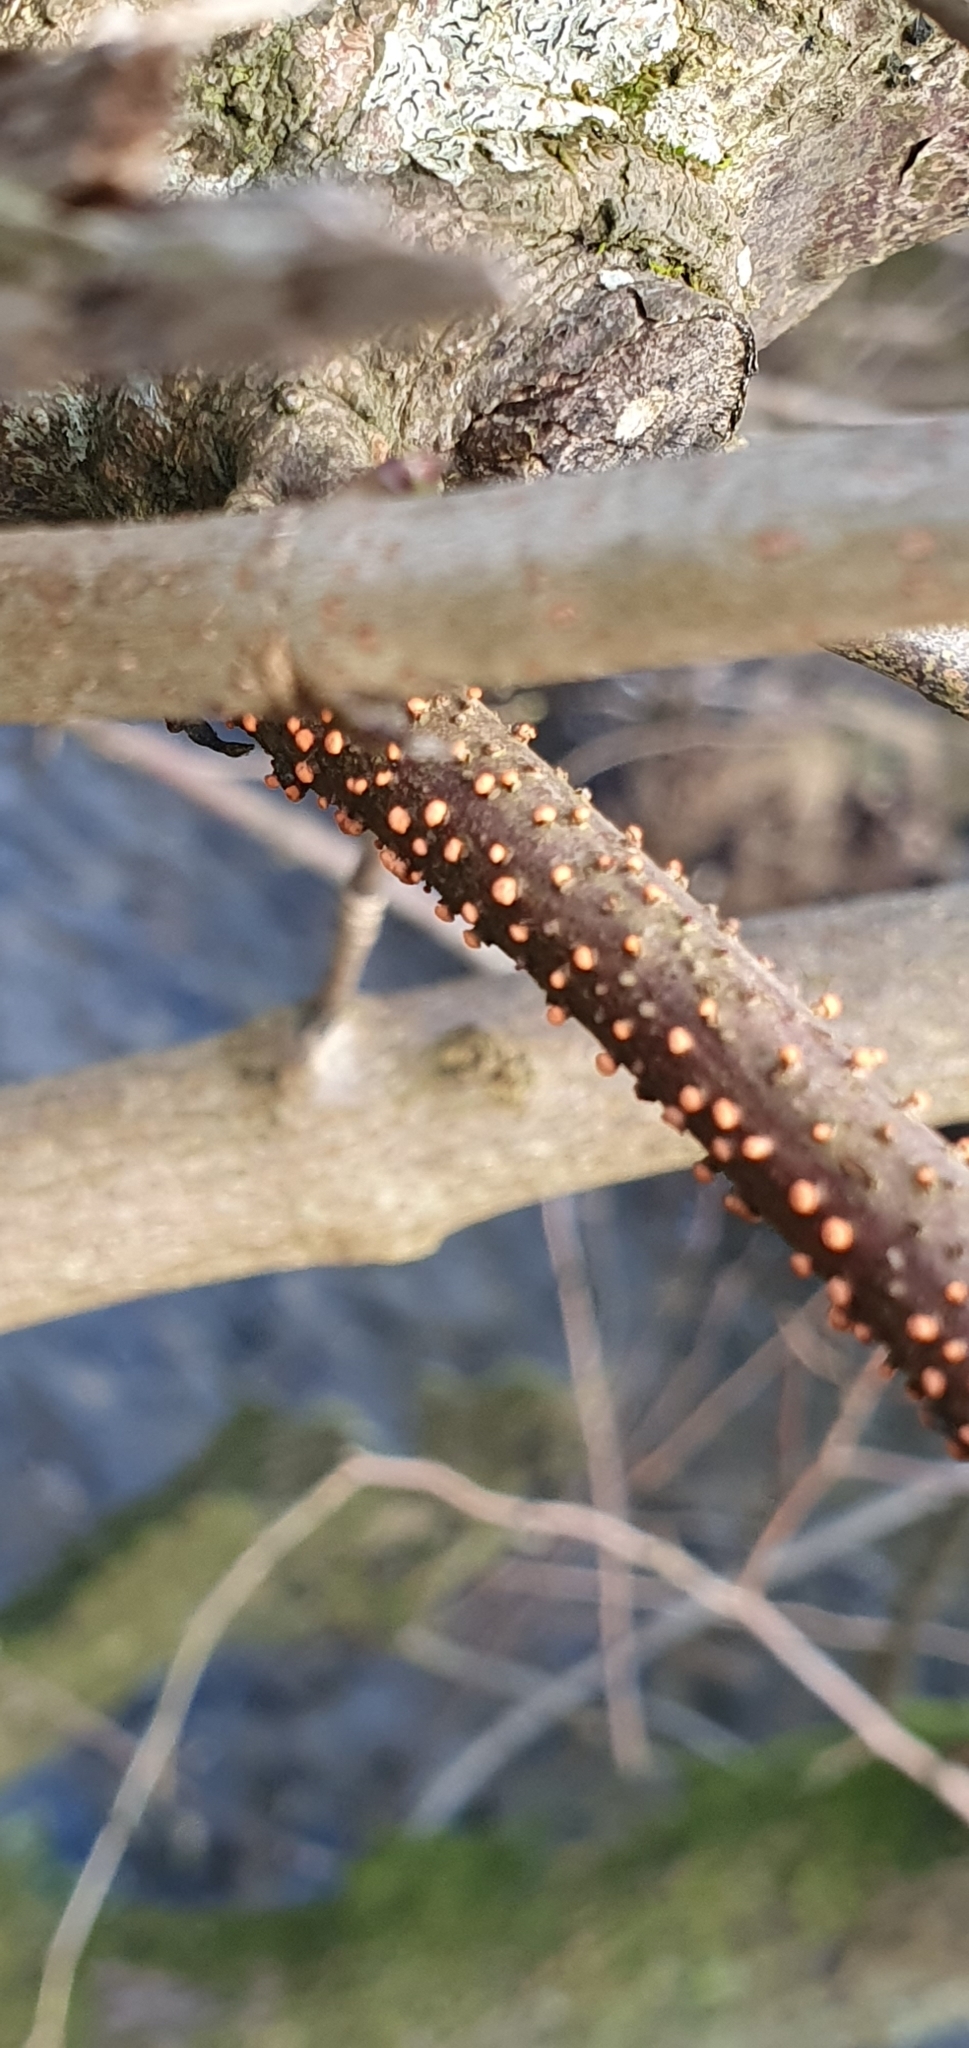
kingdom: Fungi
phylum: Ascomycota
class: Sordariomycetes
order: Hypocreales
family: Nectriaceae
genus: Nectria
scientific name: Nectria cinnabarina
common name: Coral spot
